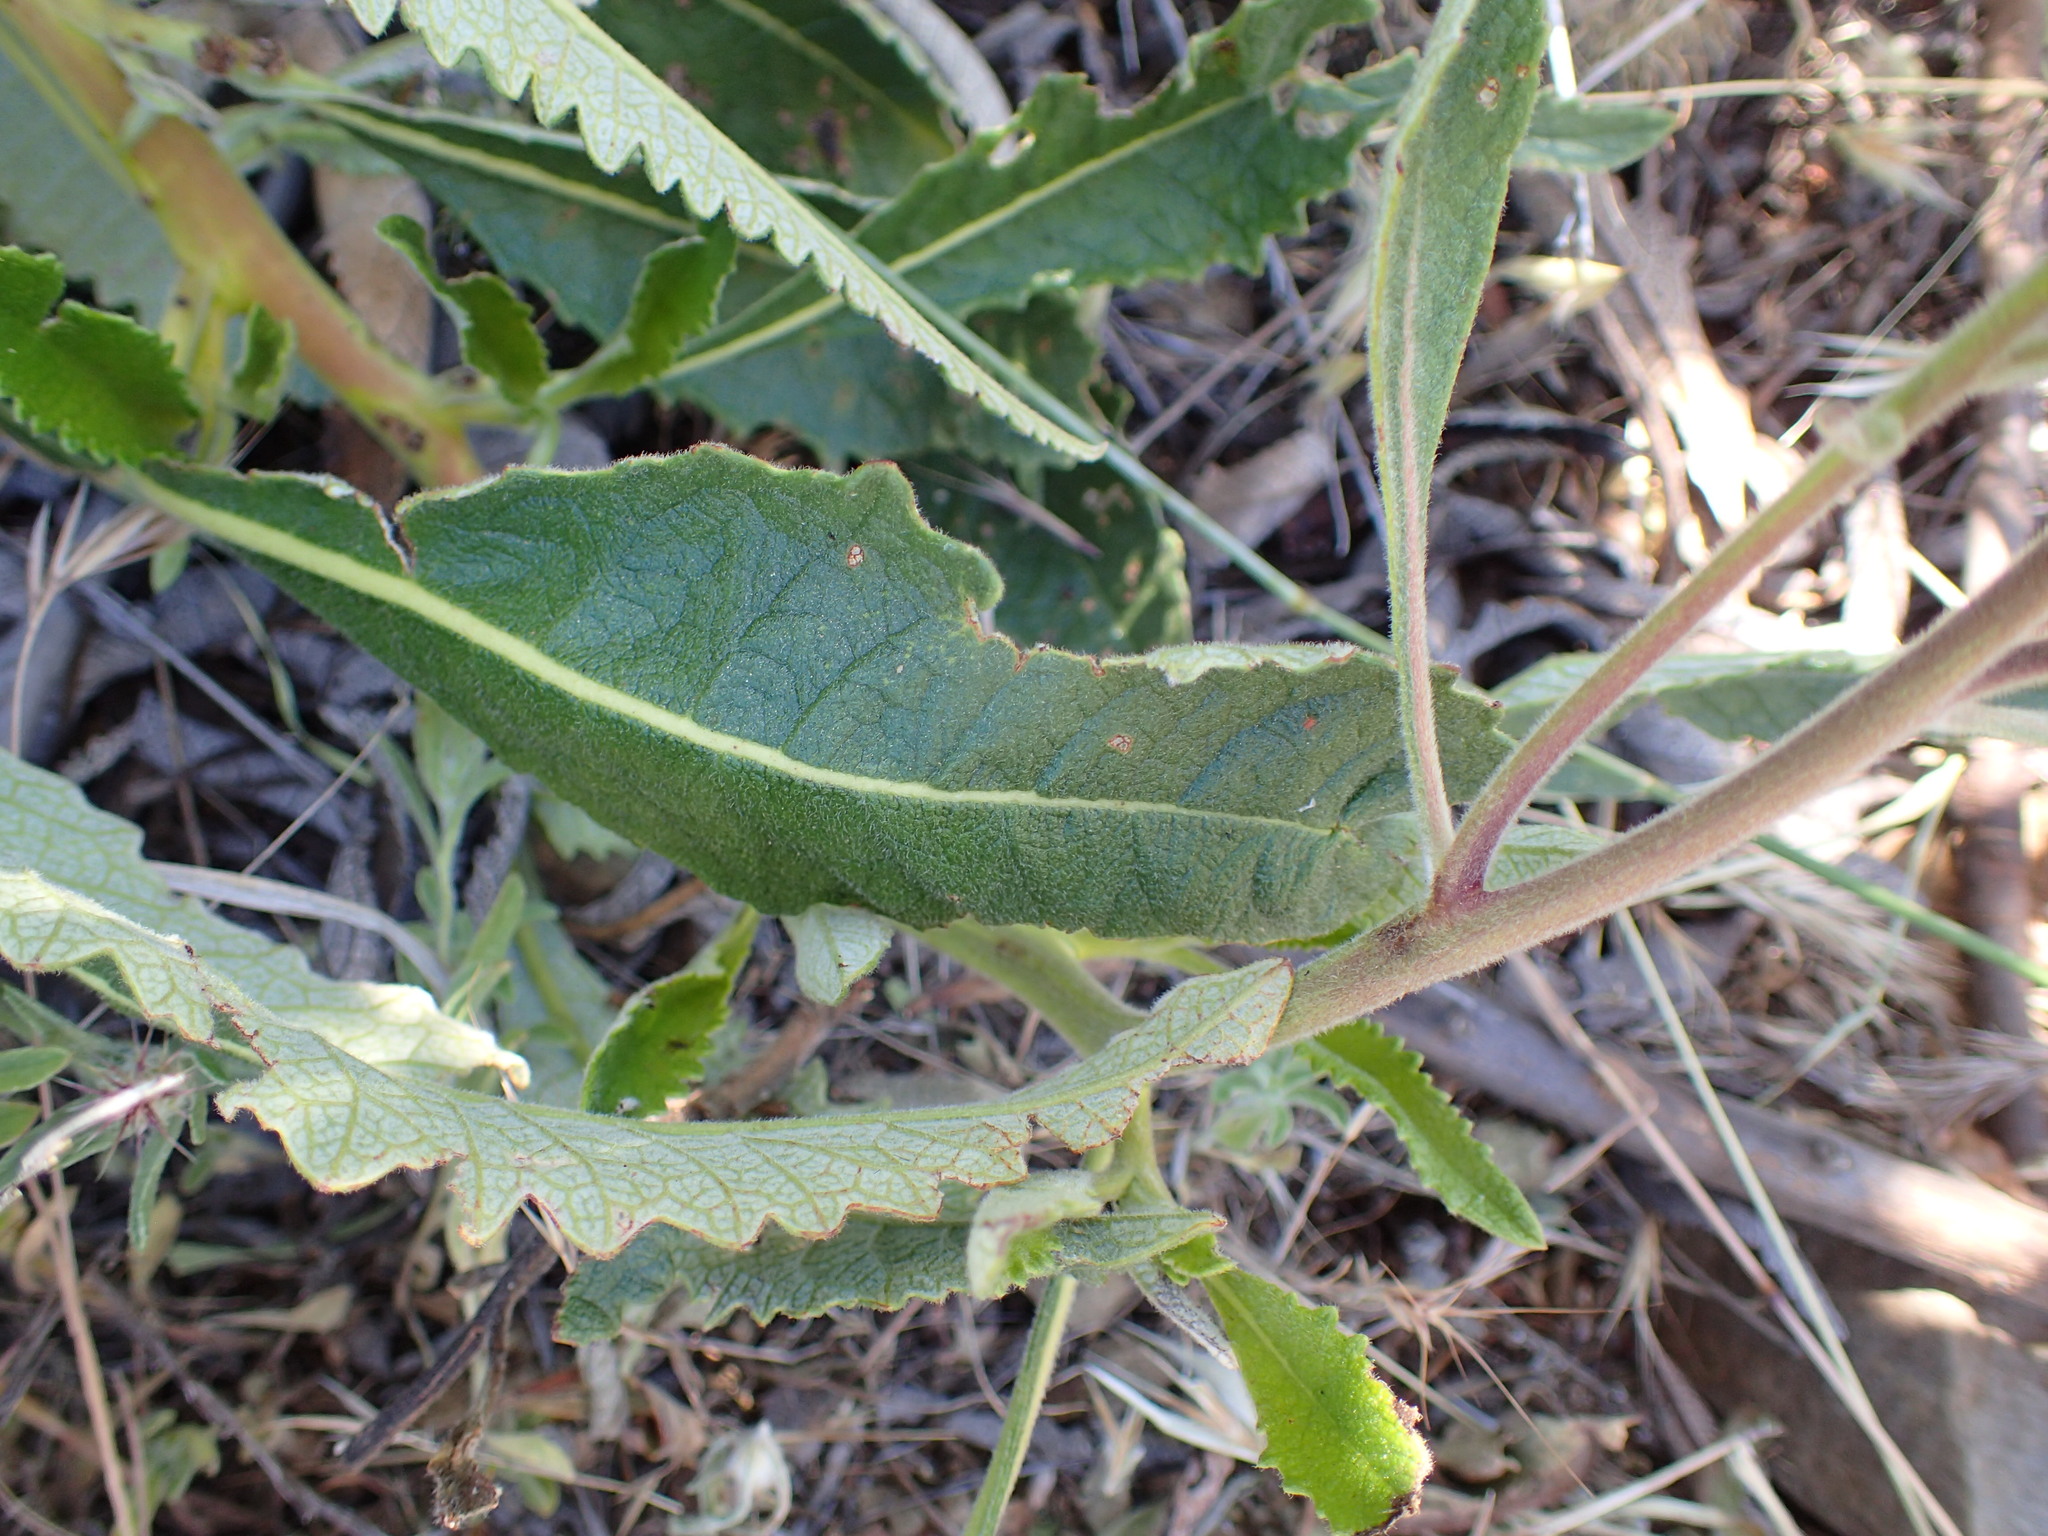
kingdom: Plantae
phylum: Tracheophyta
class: Magnoliopsida
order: Boraginales
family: Namaceae
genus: Eriodictyon
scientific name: Eriodictyon crassifolium
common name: Thick-leaf yerba-santa
